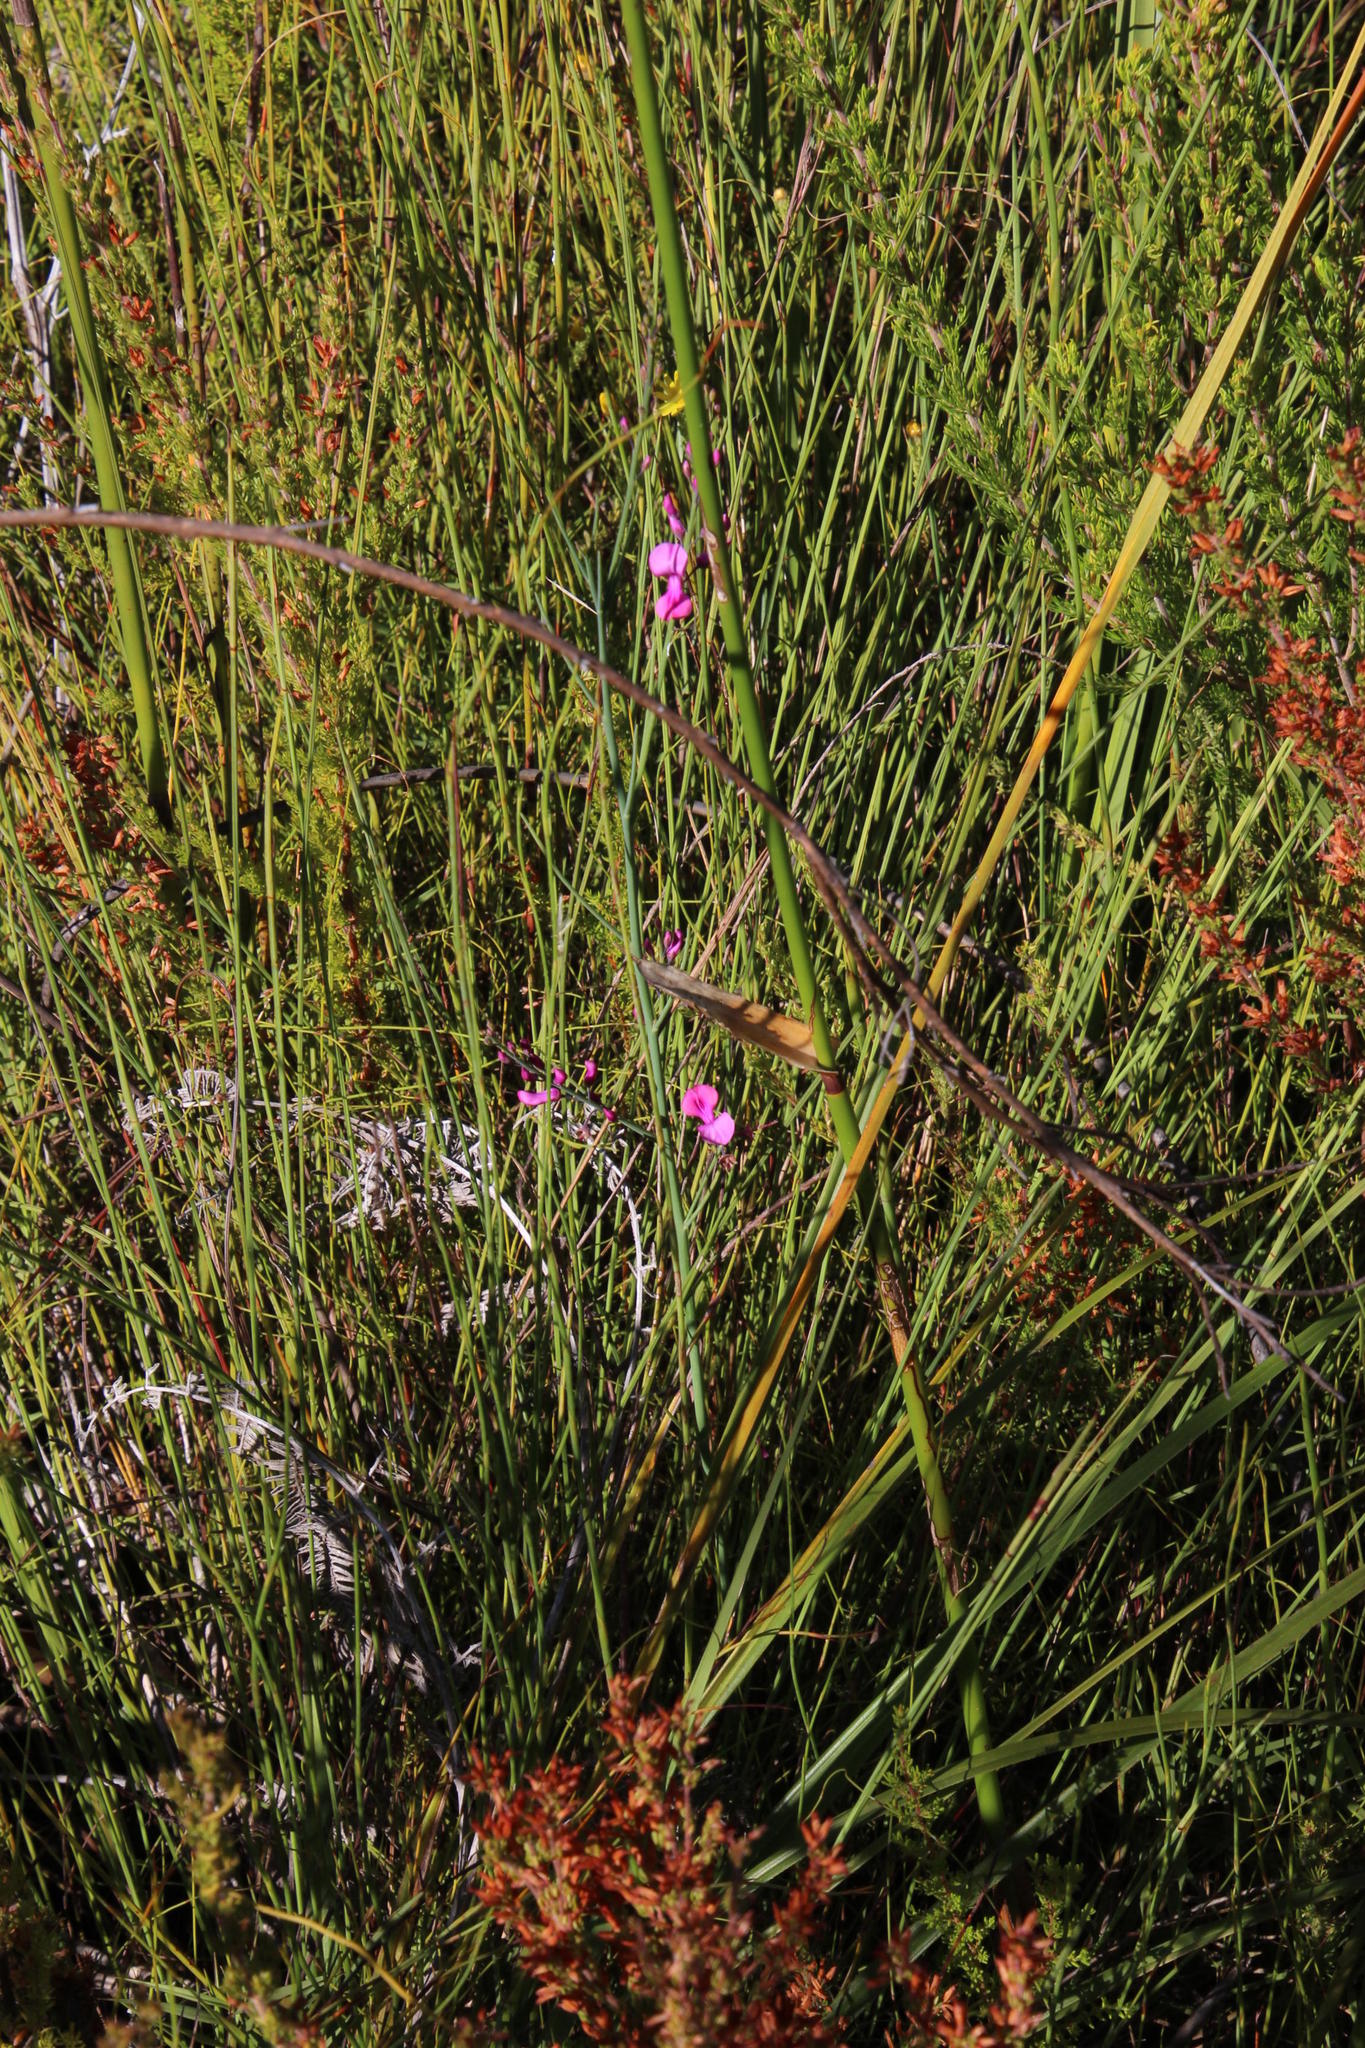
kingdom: Plantae
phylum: Tracheophyta
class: Magnoliopsida
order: Fabales
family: Fabaceae
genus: Indigofera
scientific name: Indigofera filifolia
